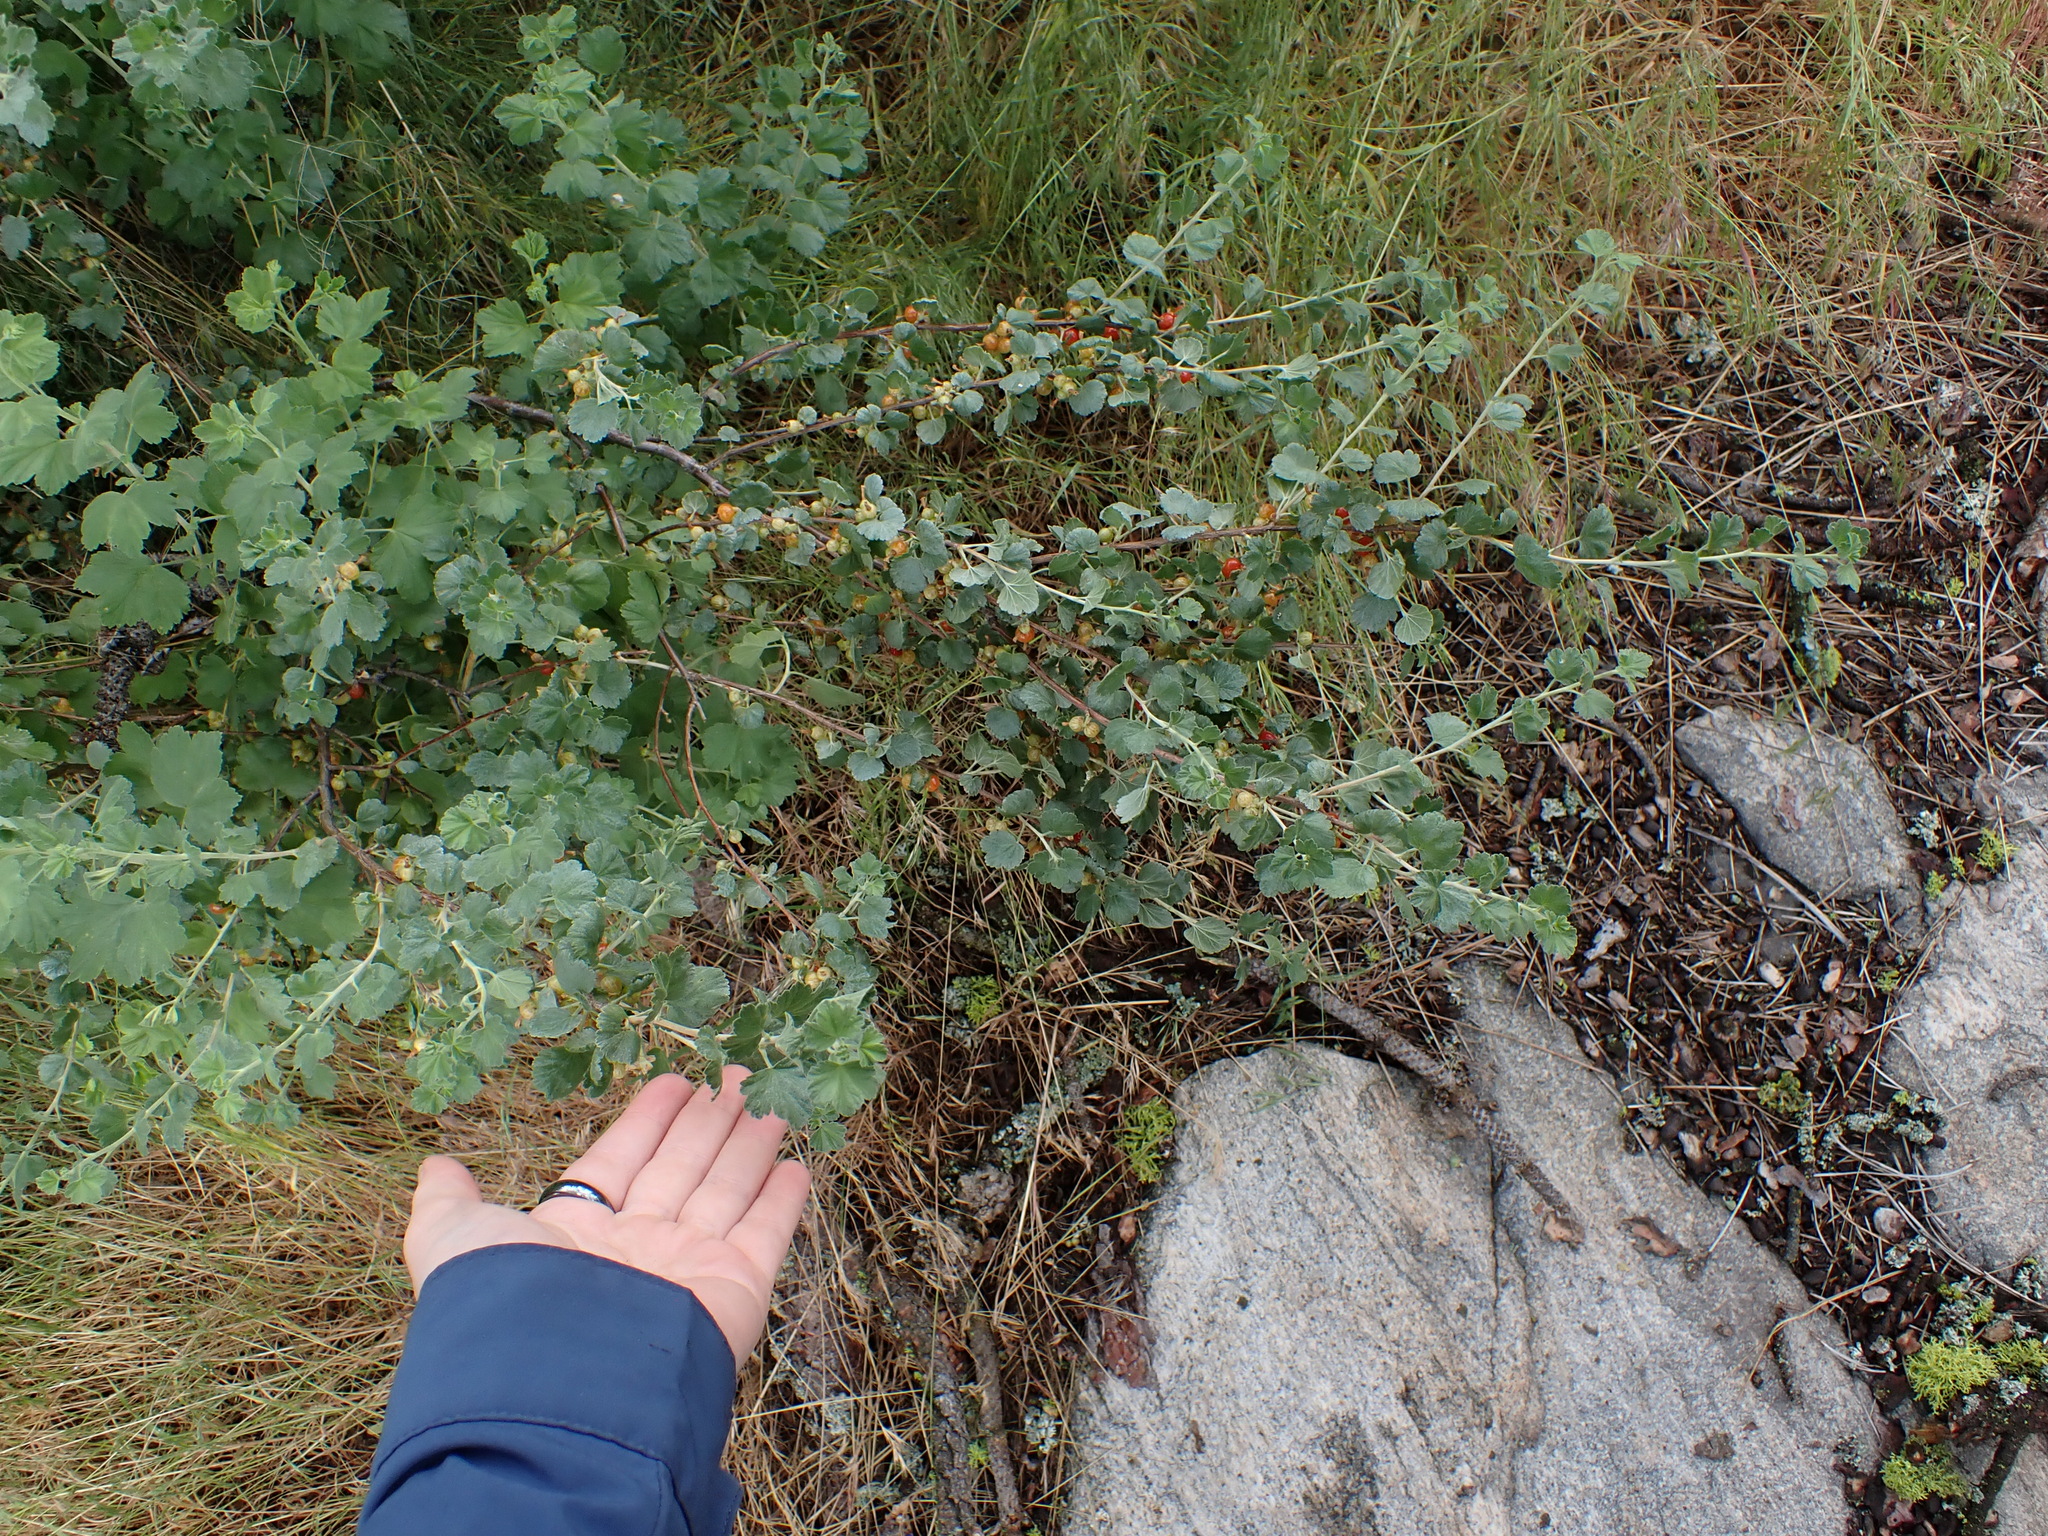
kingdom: Plantae
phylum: Tracheophyta
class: Magnoliopsida
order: Saxifragales
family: Grossulariaceae
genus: Ribes
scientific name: Ribes cereum
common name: Wax currant
